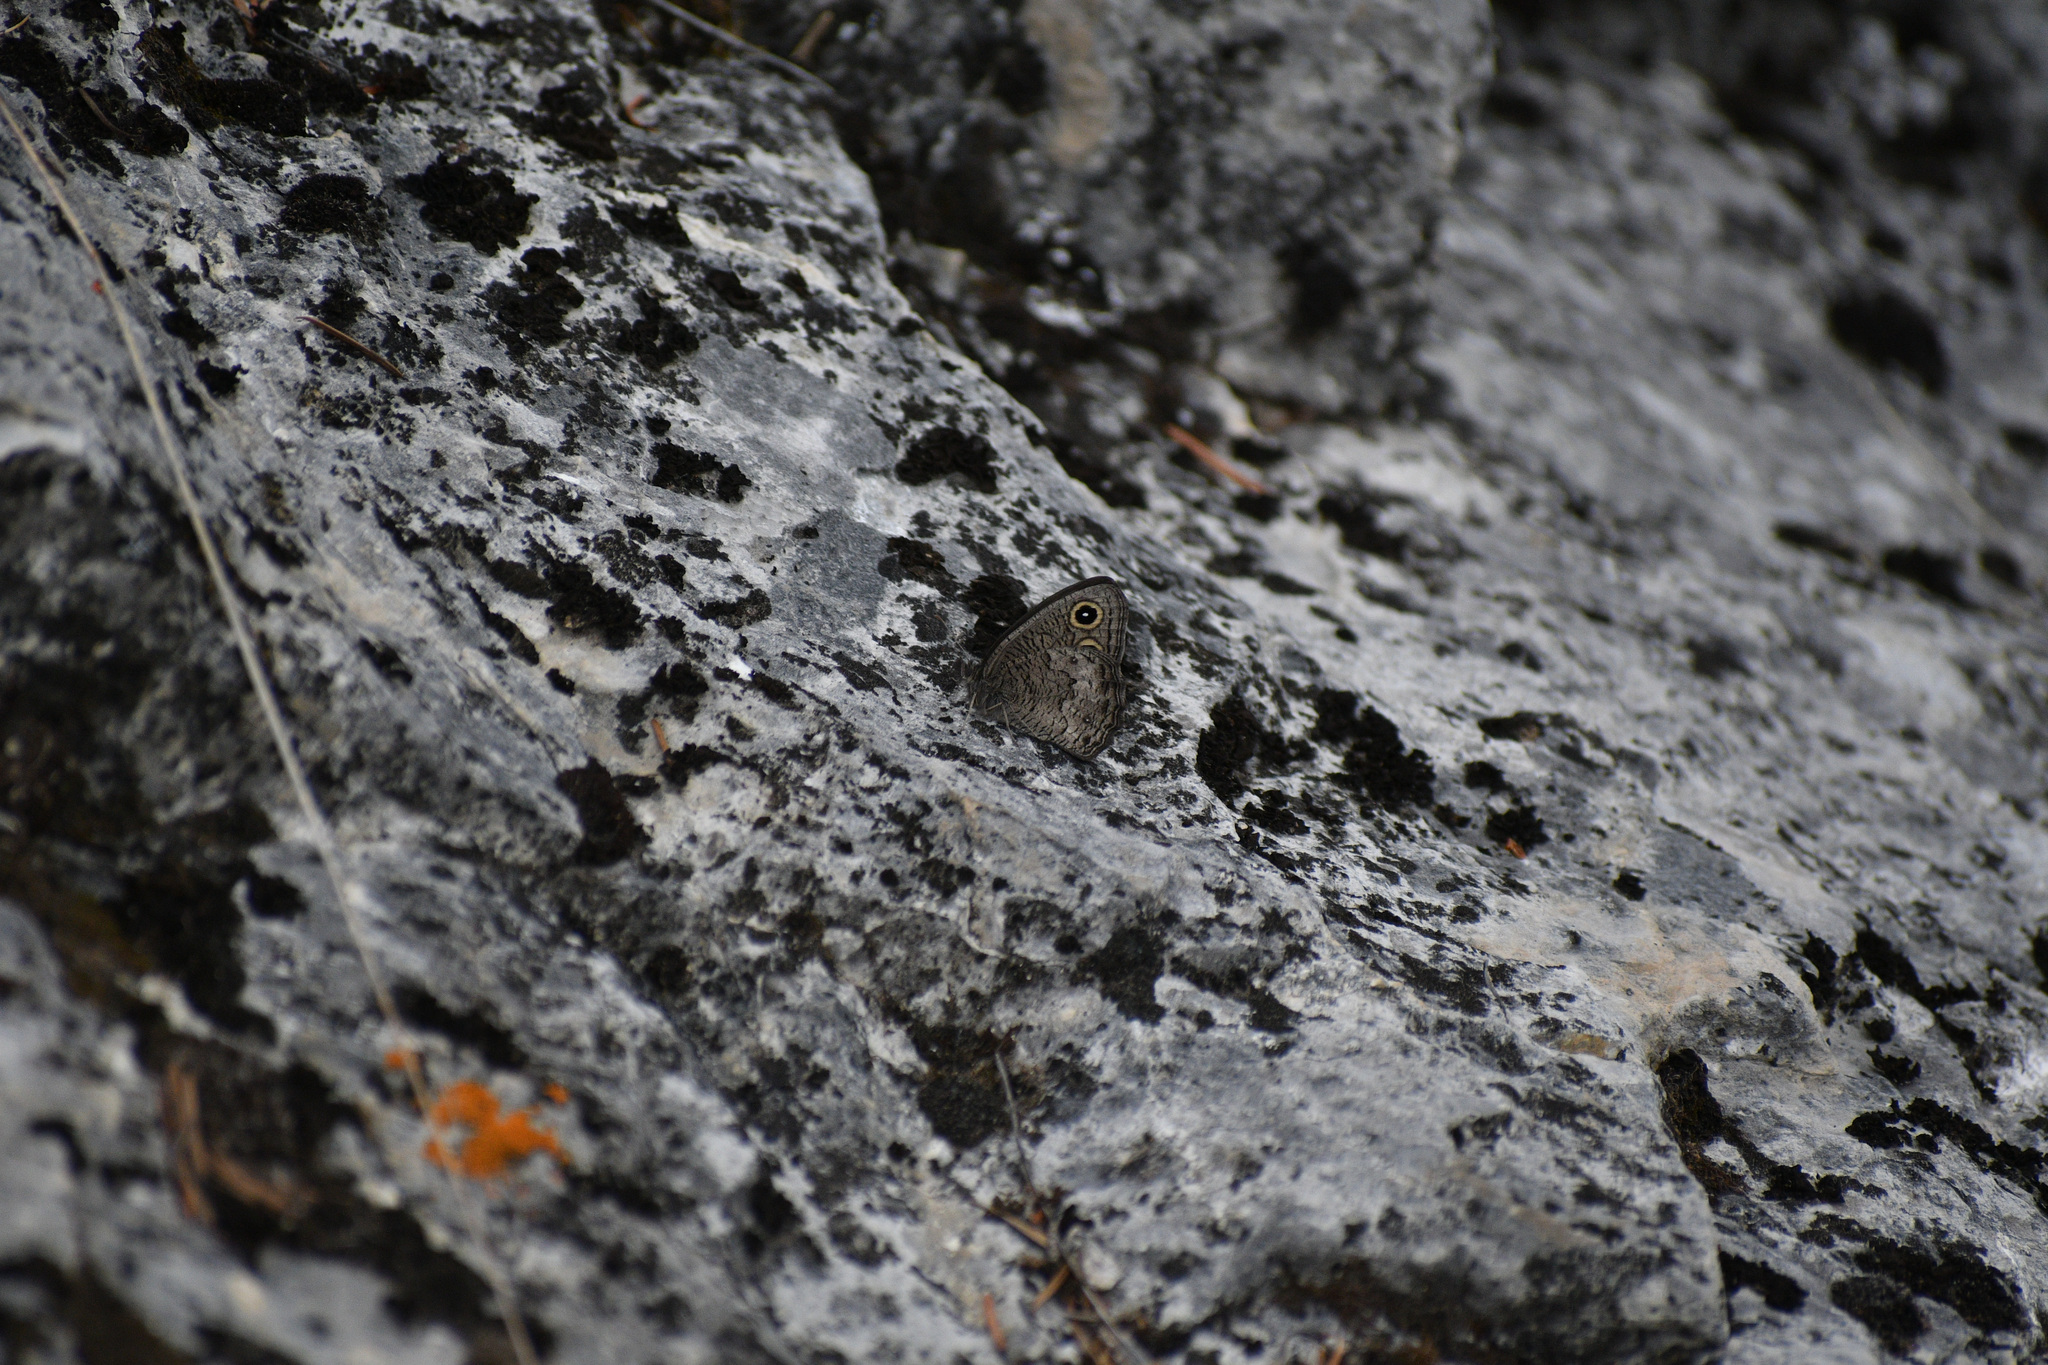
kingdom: Animalia
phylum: Arthropoda
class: Insecta
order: Lepidoptera
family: Nymphalidae
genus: Cercyonis
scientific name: Cercyonis sthenele
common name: Great basin wood-nymph
